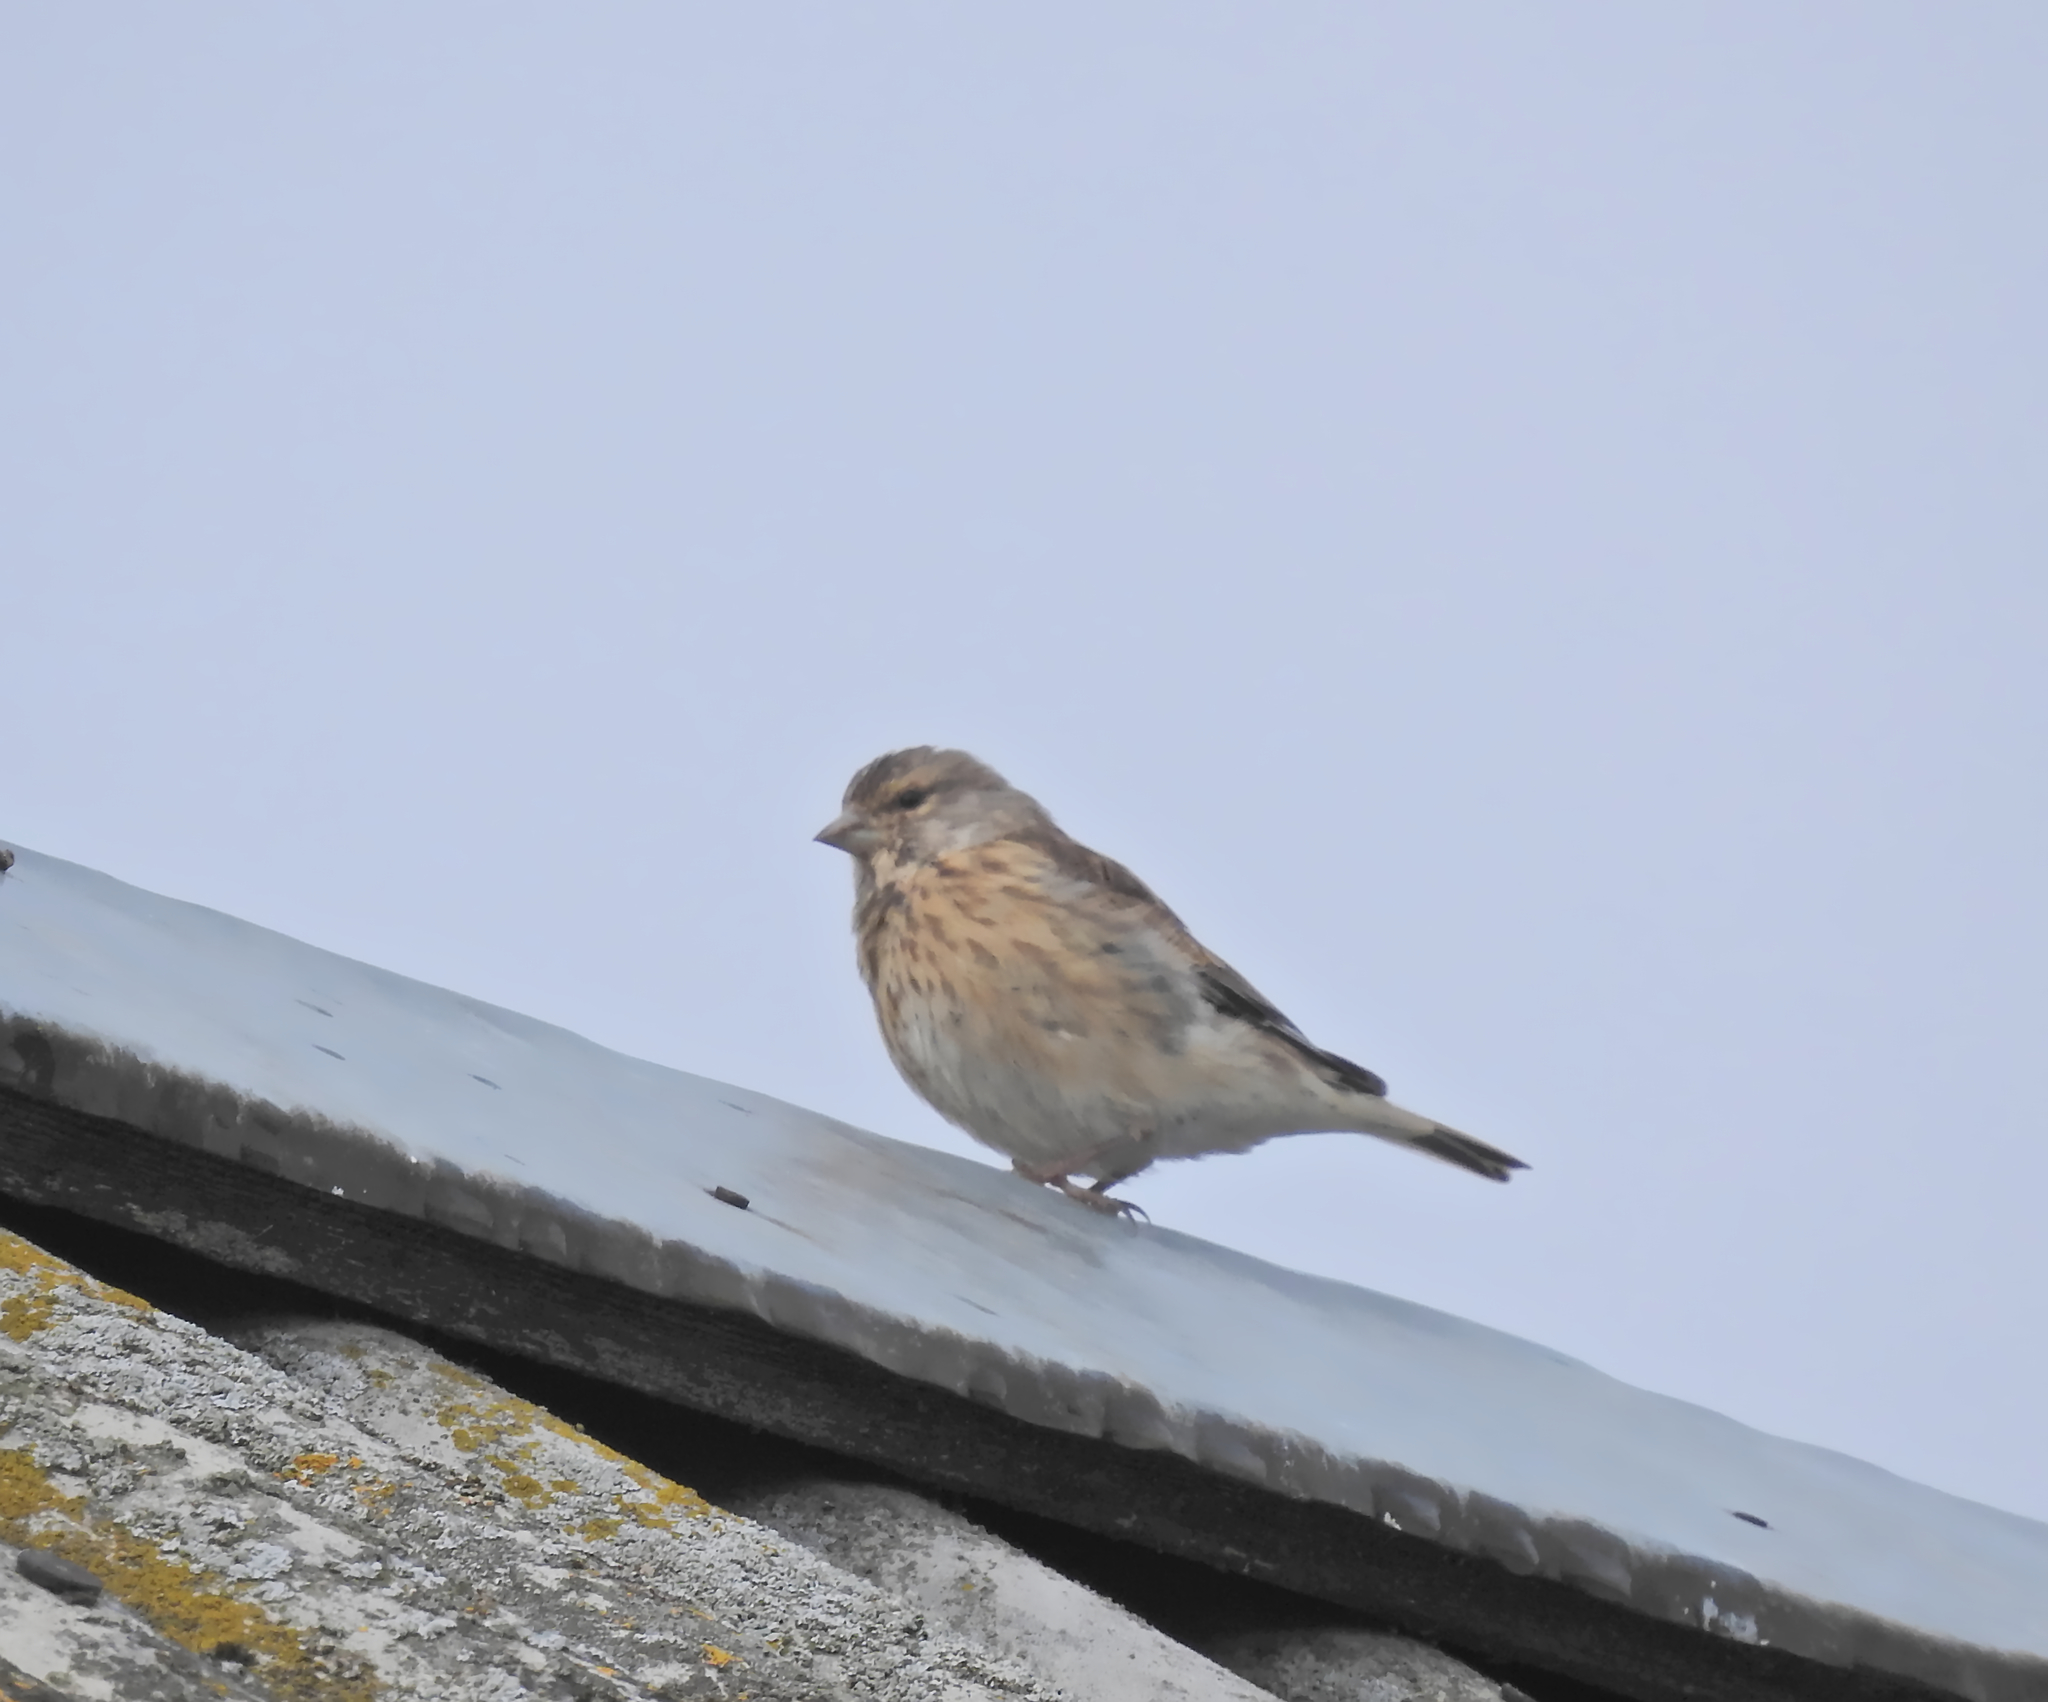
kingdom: Animalia
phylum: Chordata
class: Aves
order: Passeriformes
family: Fringillidae
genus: Linaria
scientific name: Linaria cannabina
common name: Common linnet
